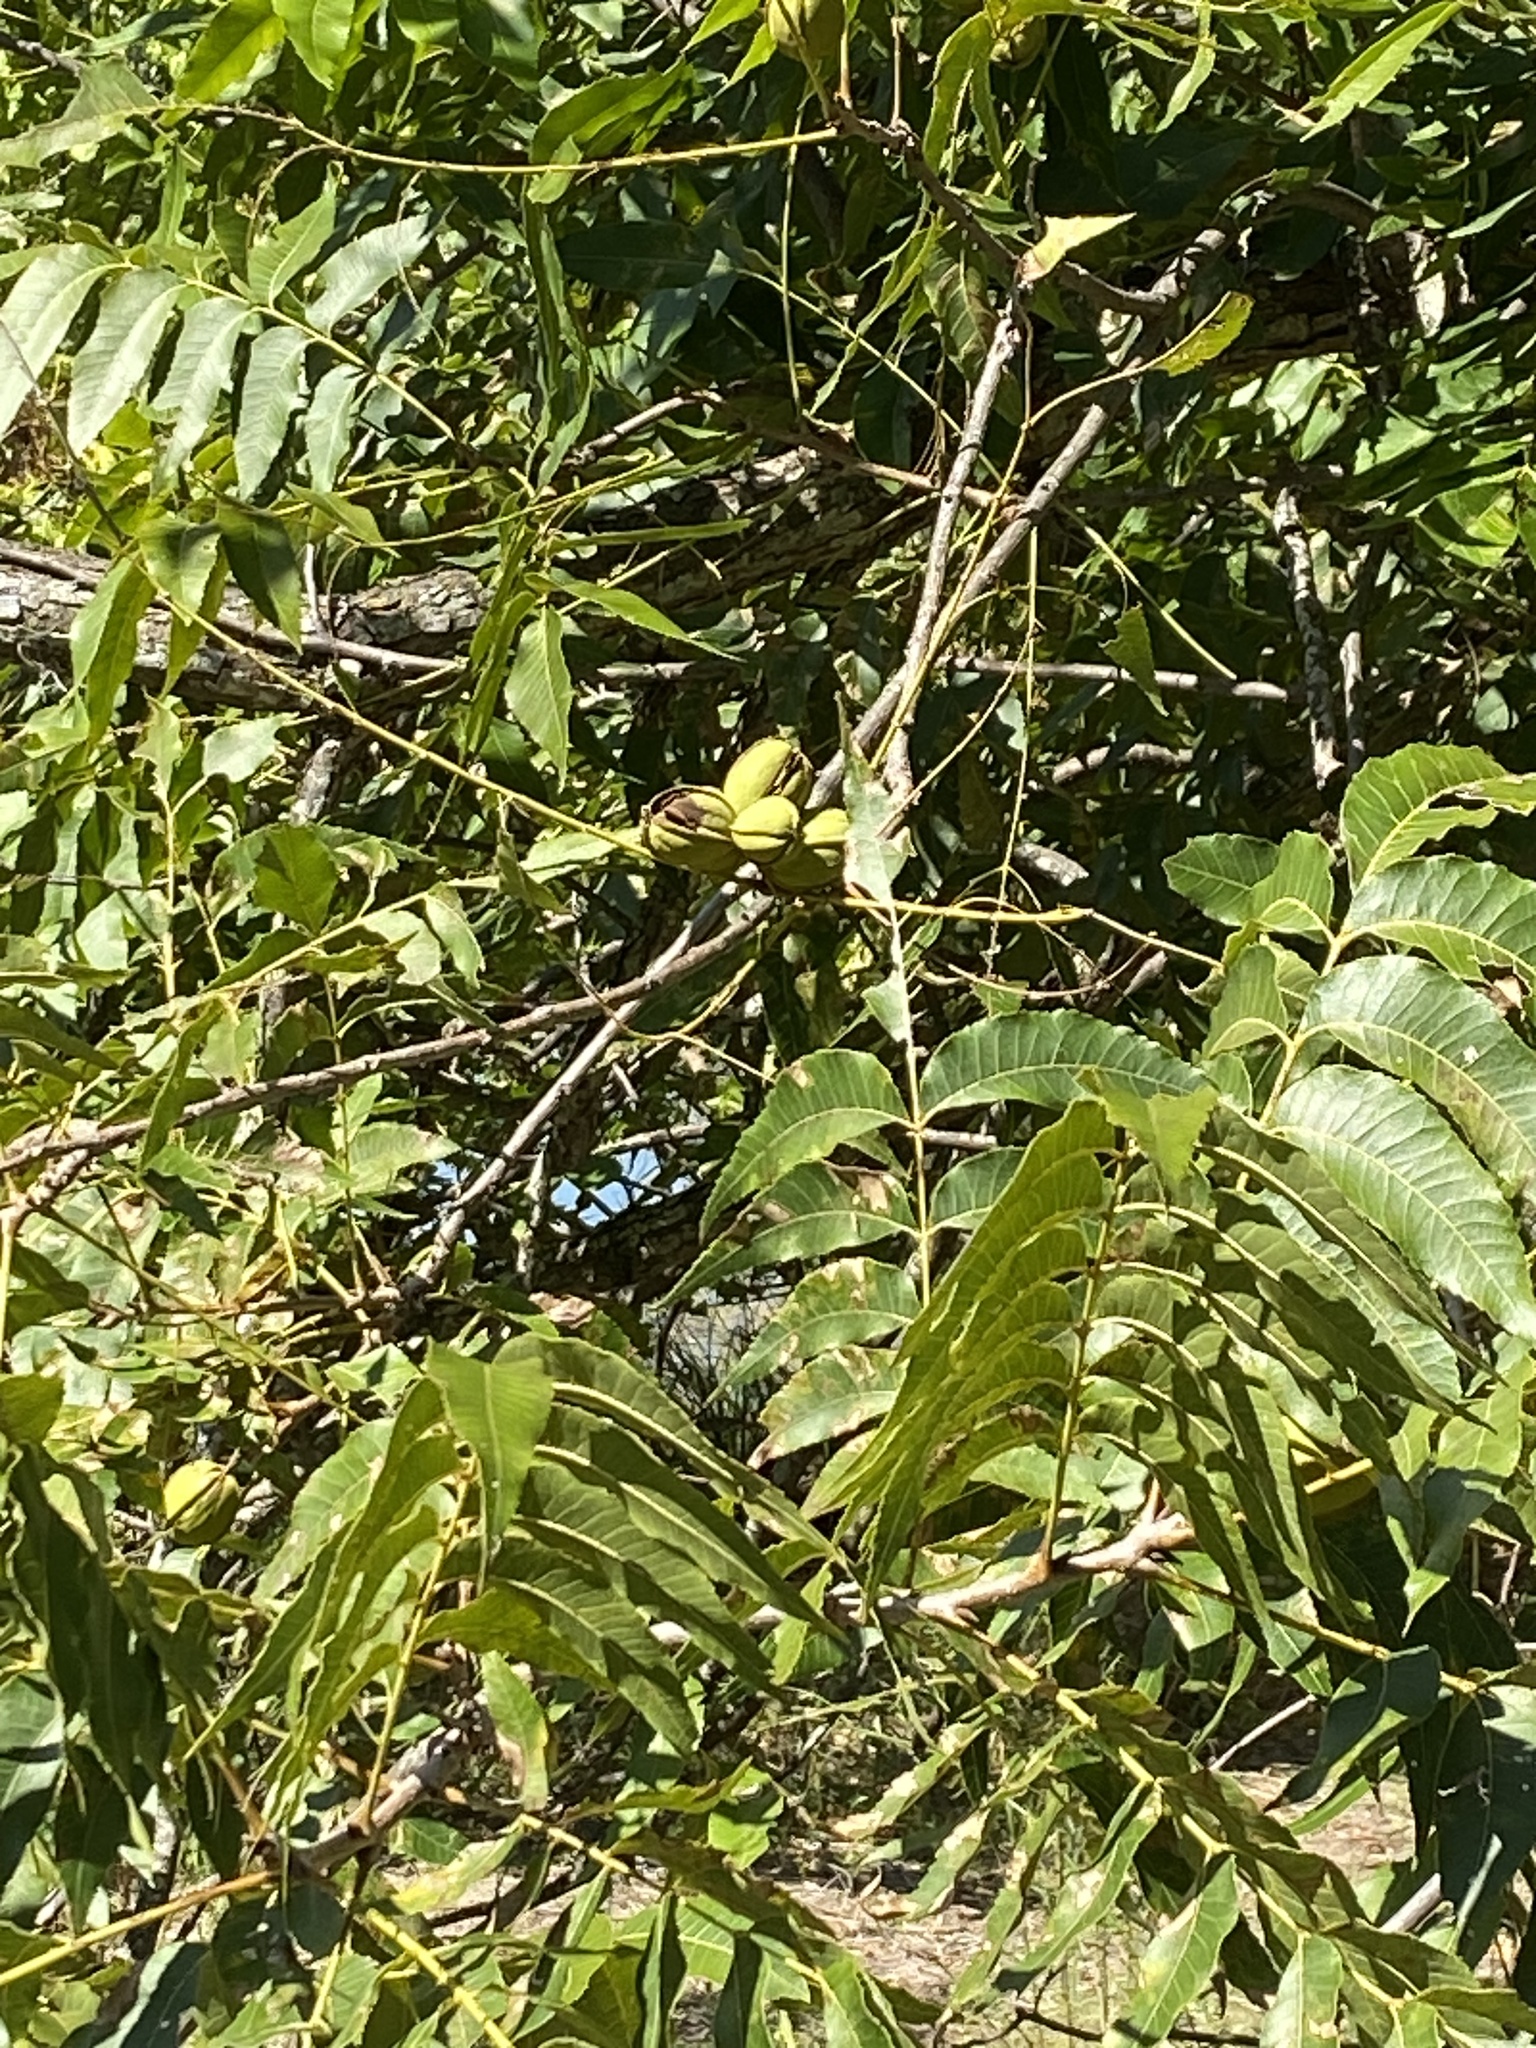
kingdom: Plantae
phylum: Tracheophyta
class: Magnoliopsida
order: Fagales
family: Juglandaceae
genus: Carya
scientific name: Carya illinoinensis
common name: Pecan
